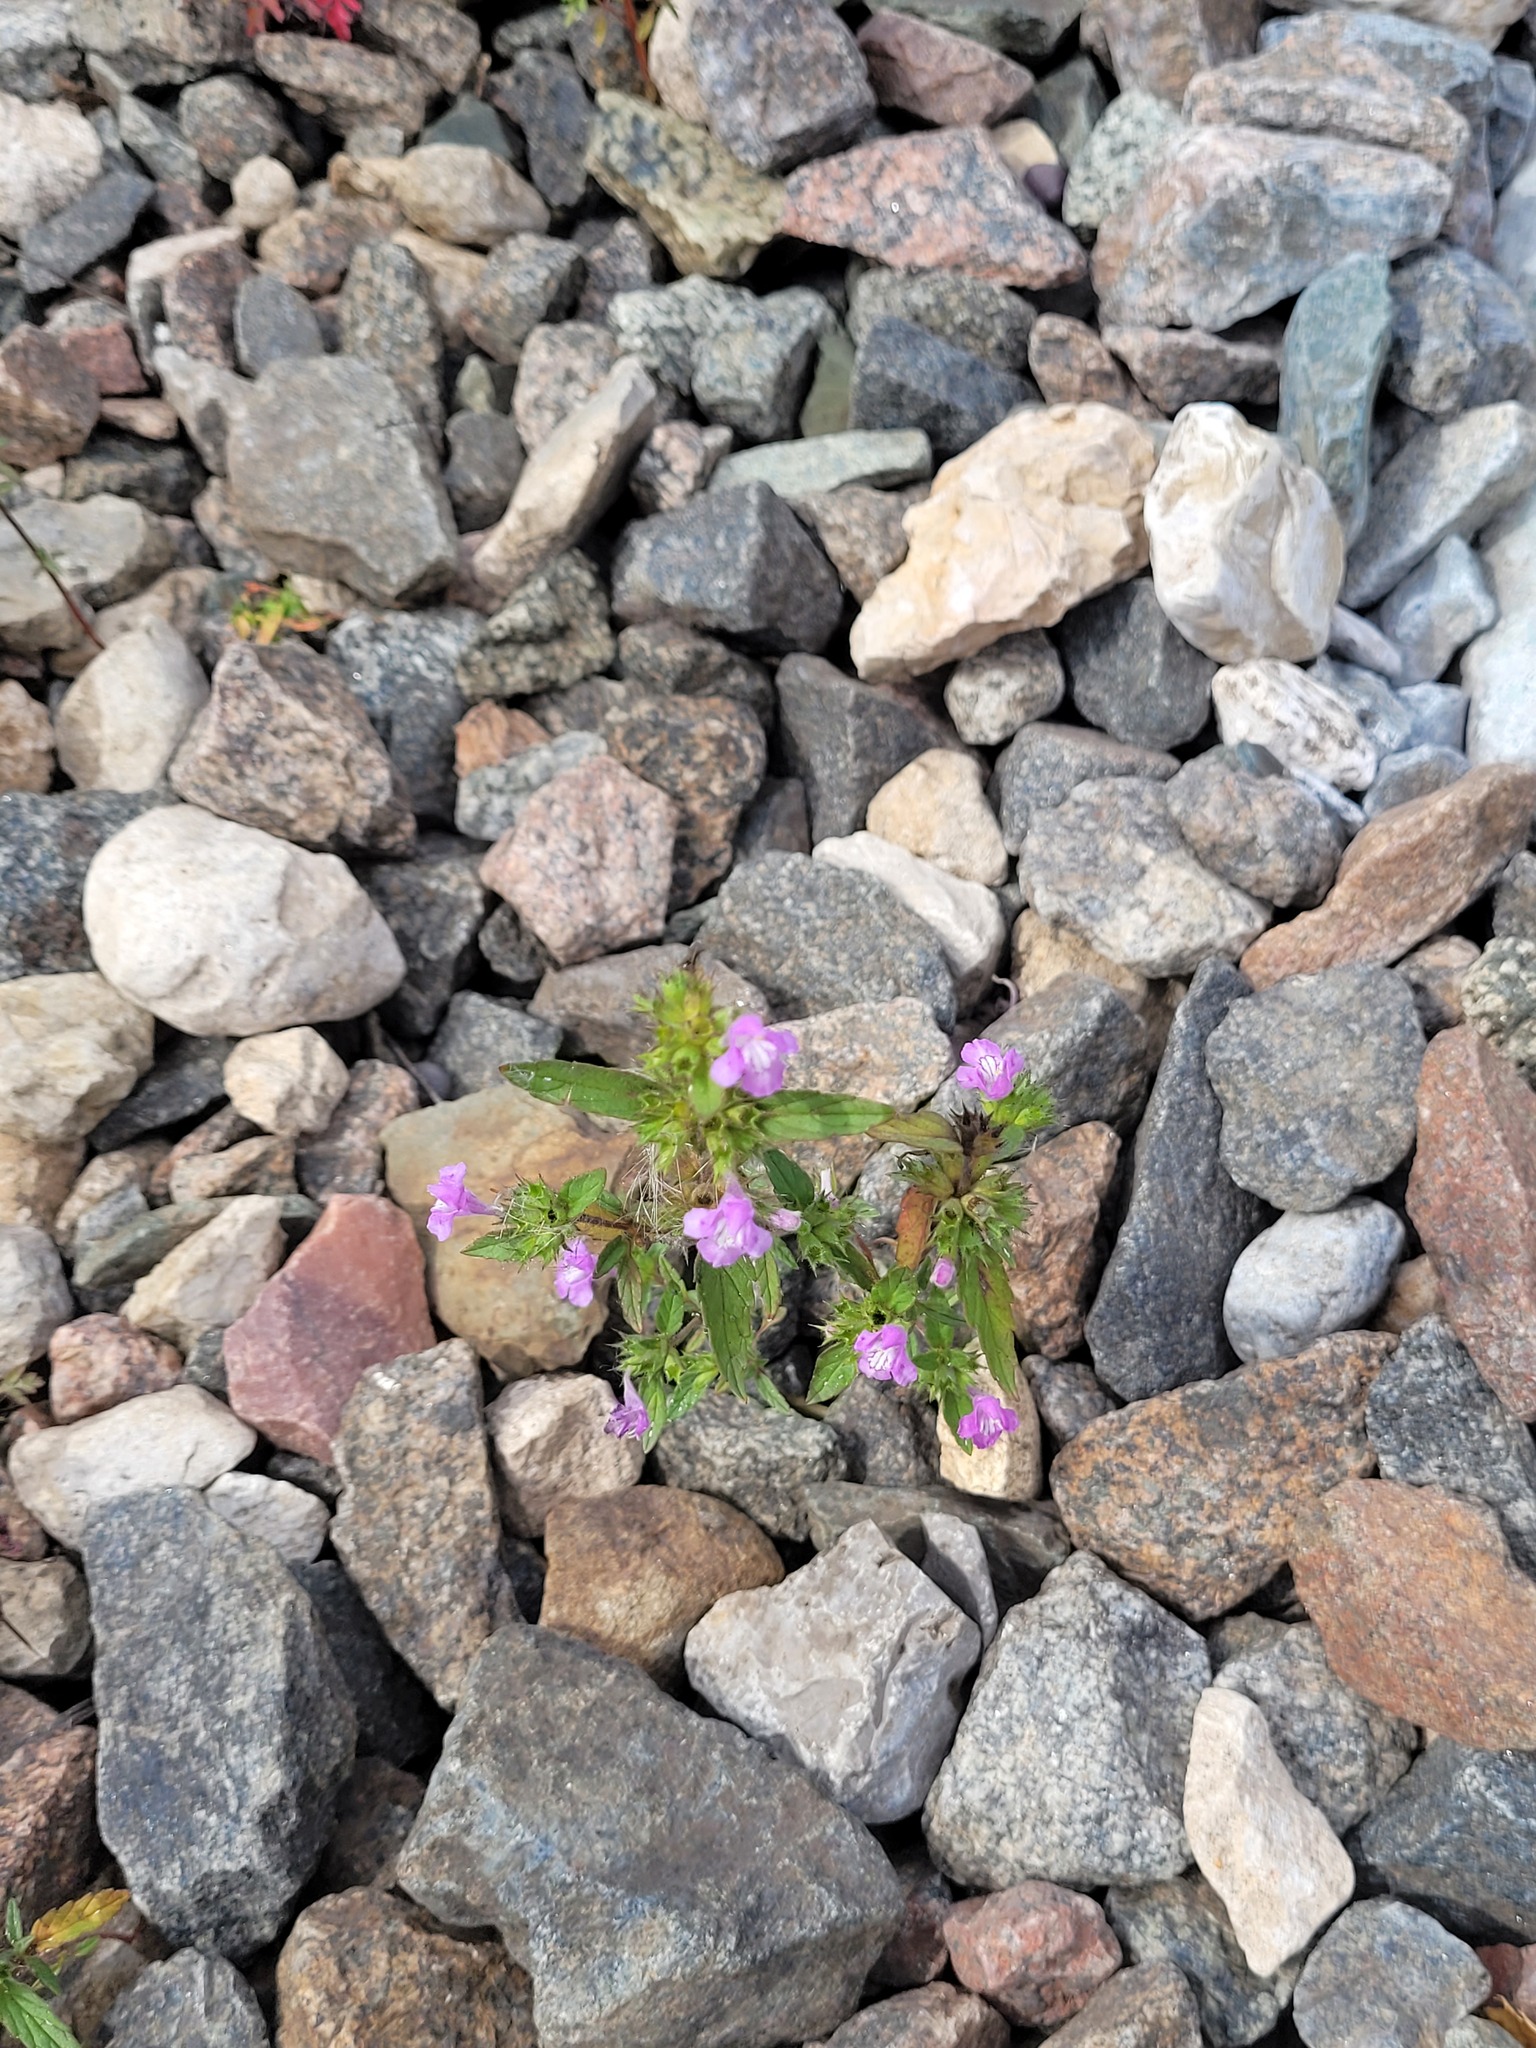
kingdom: Plantae
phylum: Tracheophyta
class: Magnoliopsida
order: Lamiales
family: Lamiaceae
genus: Galeopsis
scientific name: Galeopsis ladanum
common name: Broad-leaved hemp-nettle
